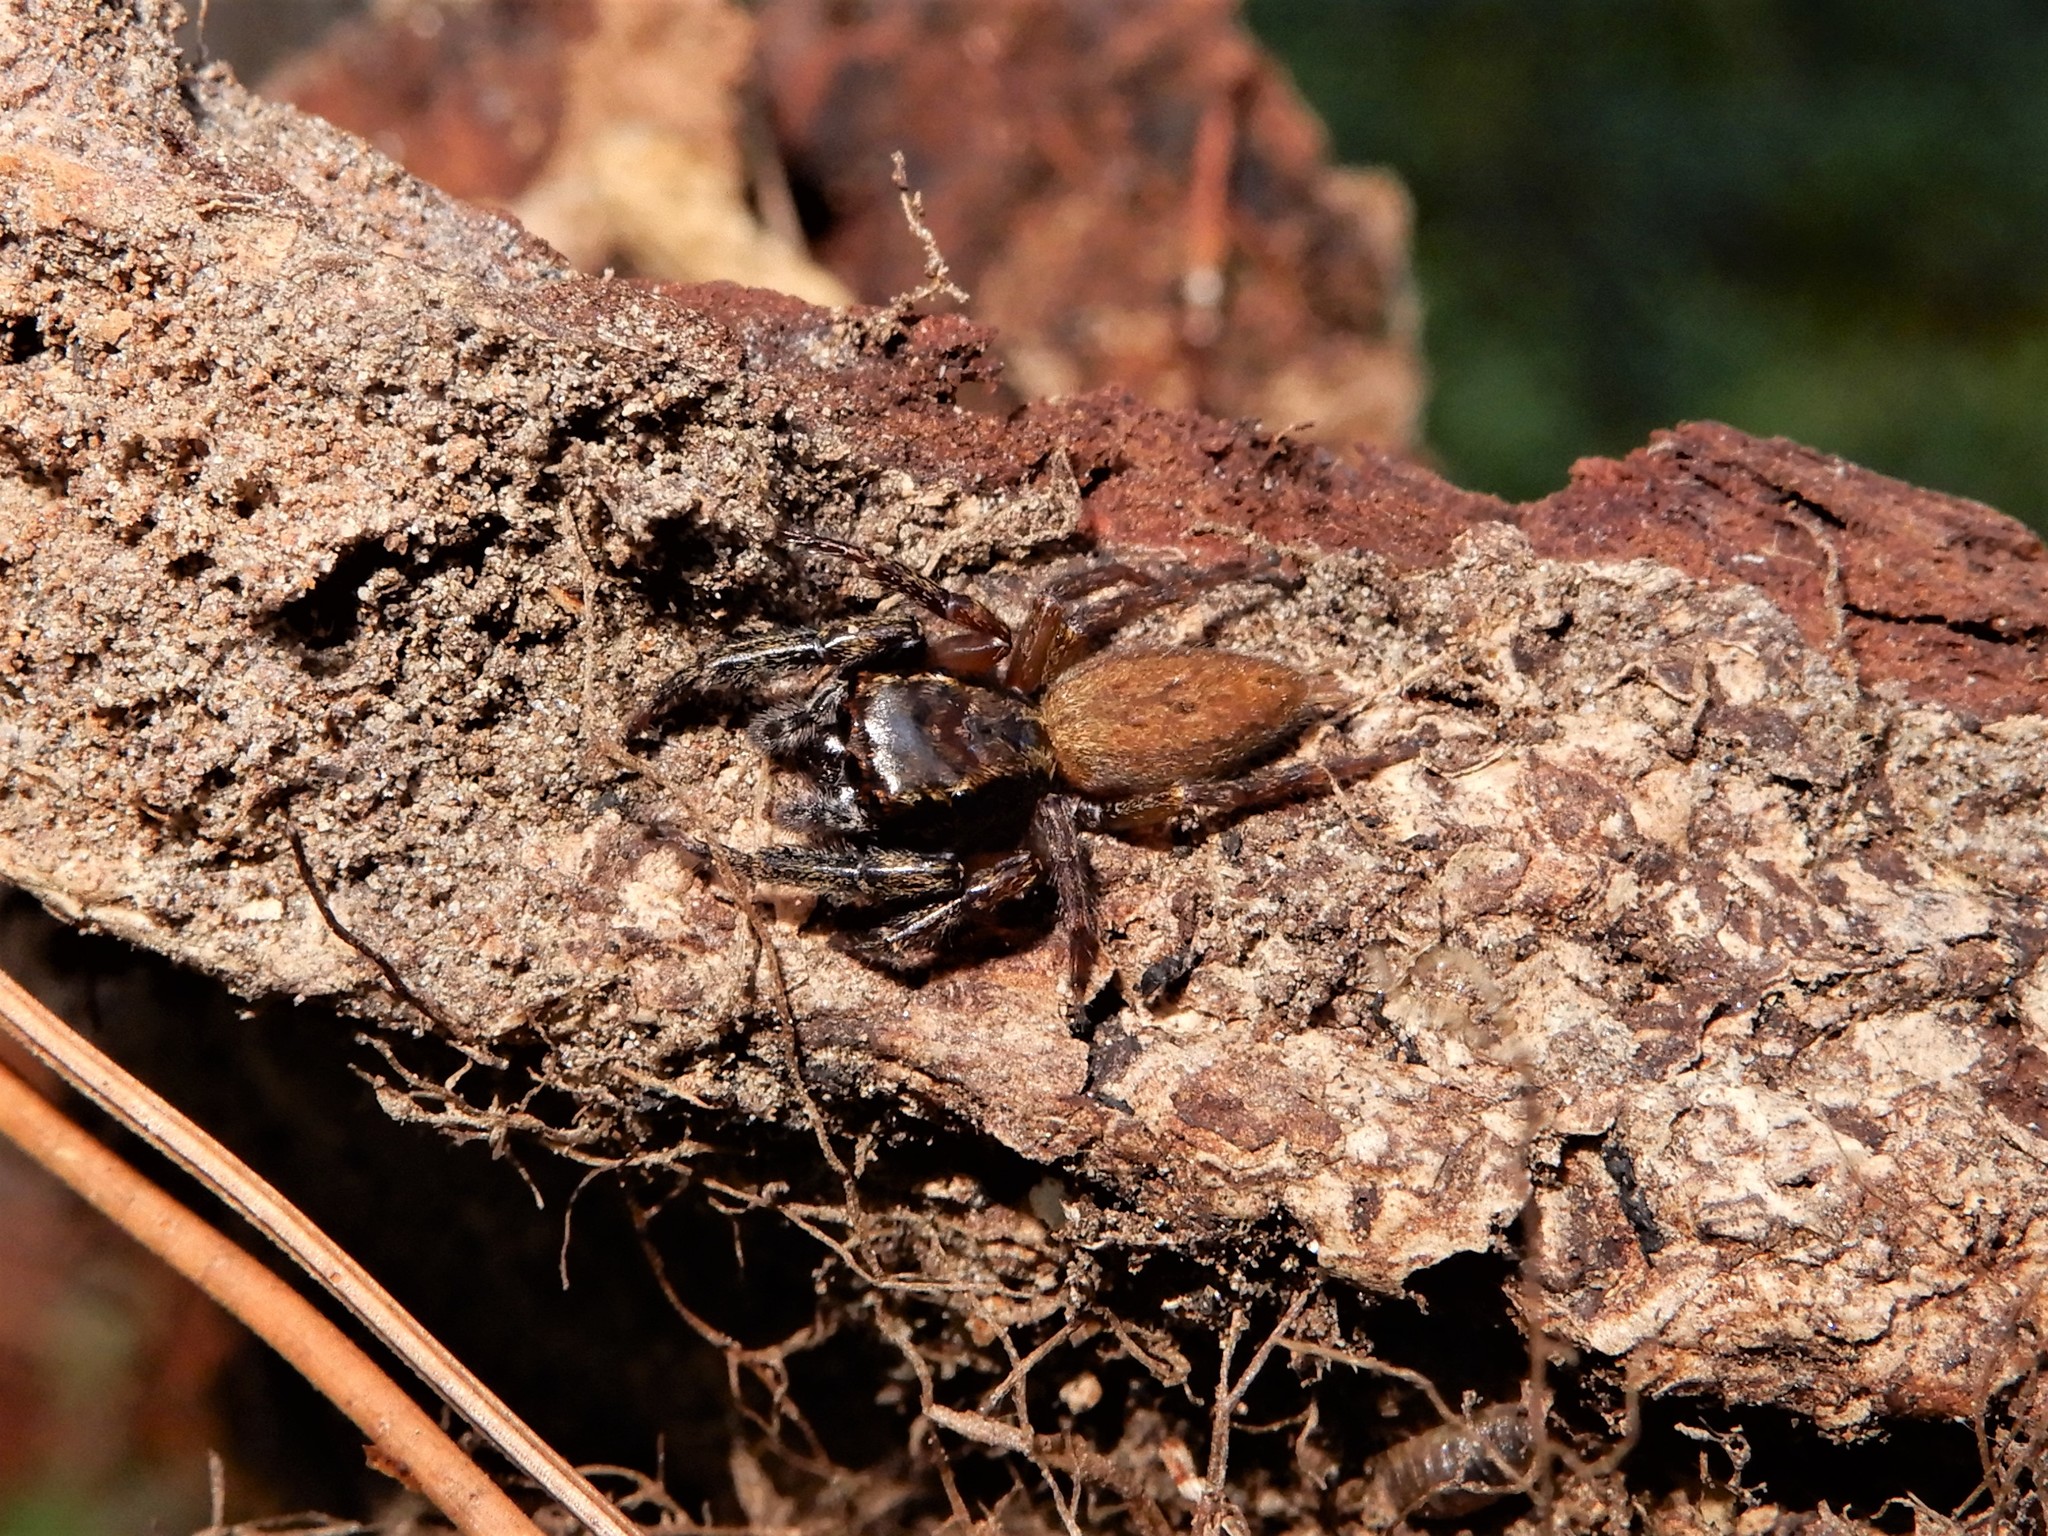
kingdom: Animalia
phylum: Arthropoda
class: Arachnida
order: Araneae
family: Salticidae
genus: Trite
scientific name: Trite auricoma
